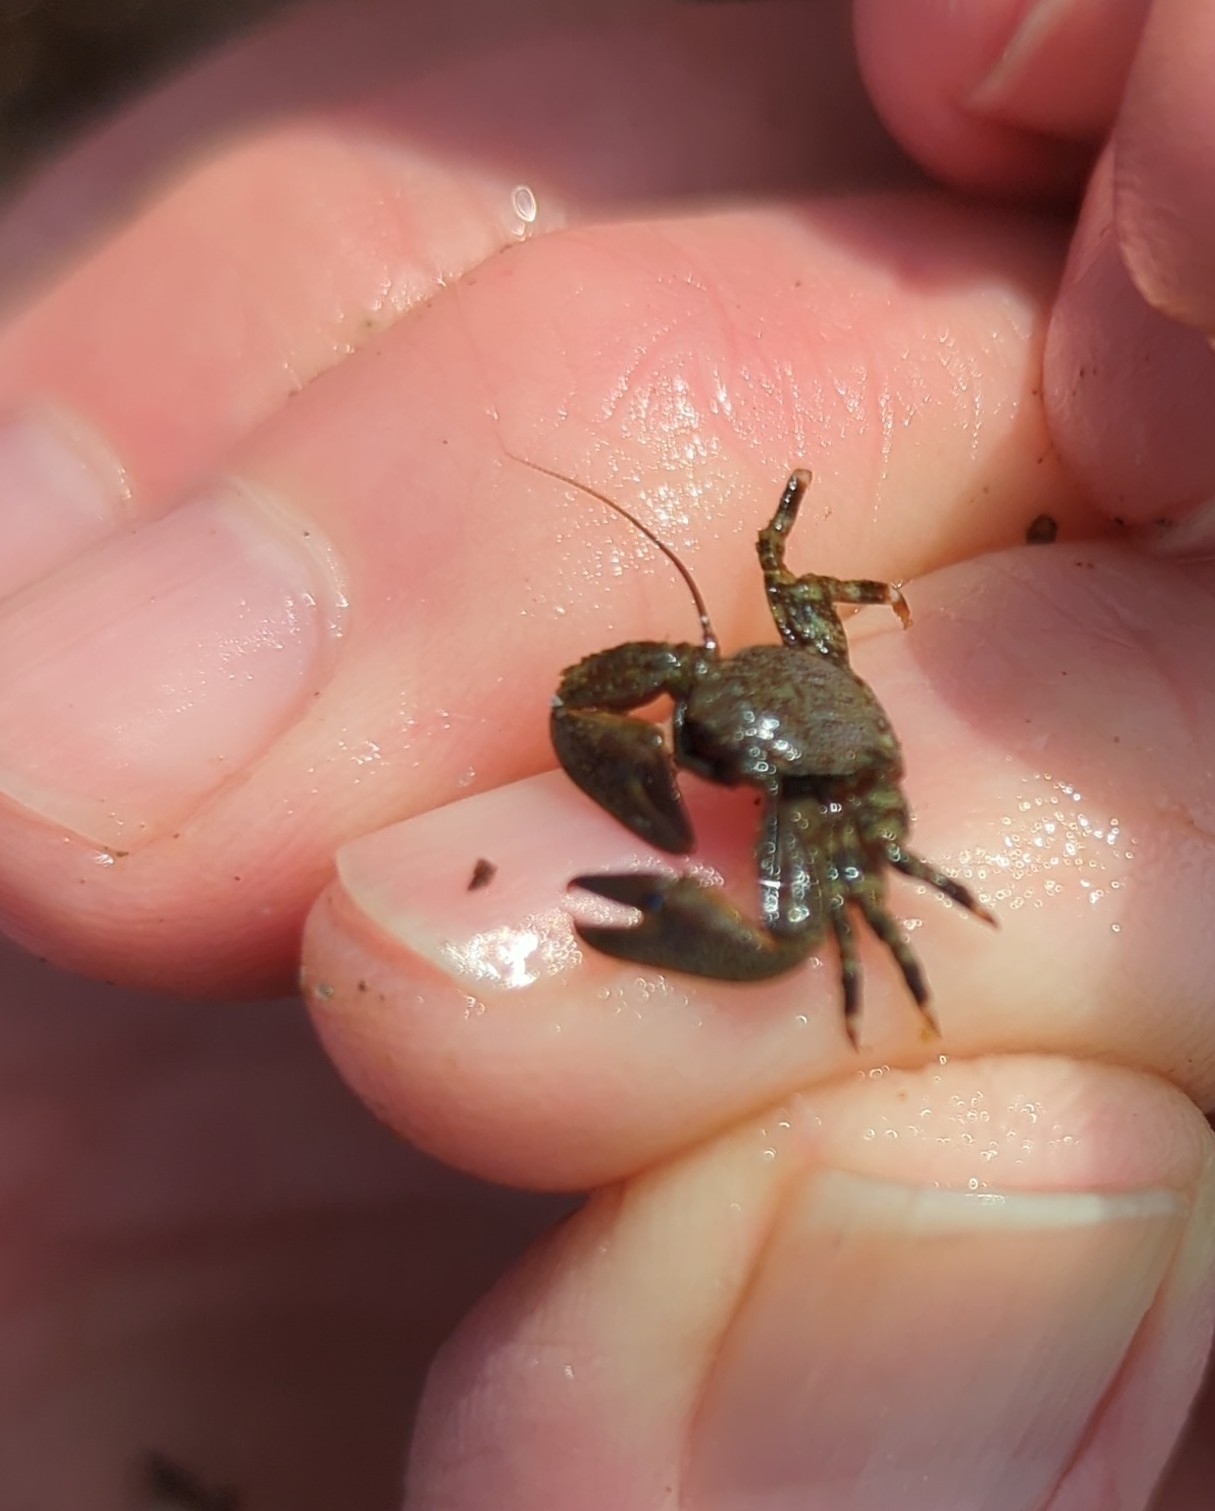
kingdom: Animalia
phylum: Arthropoda
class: Malacostraca
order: Decapoda
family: Porcellanidae
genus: Petrolisthes
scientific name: Petrolisthes eriomerus
